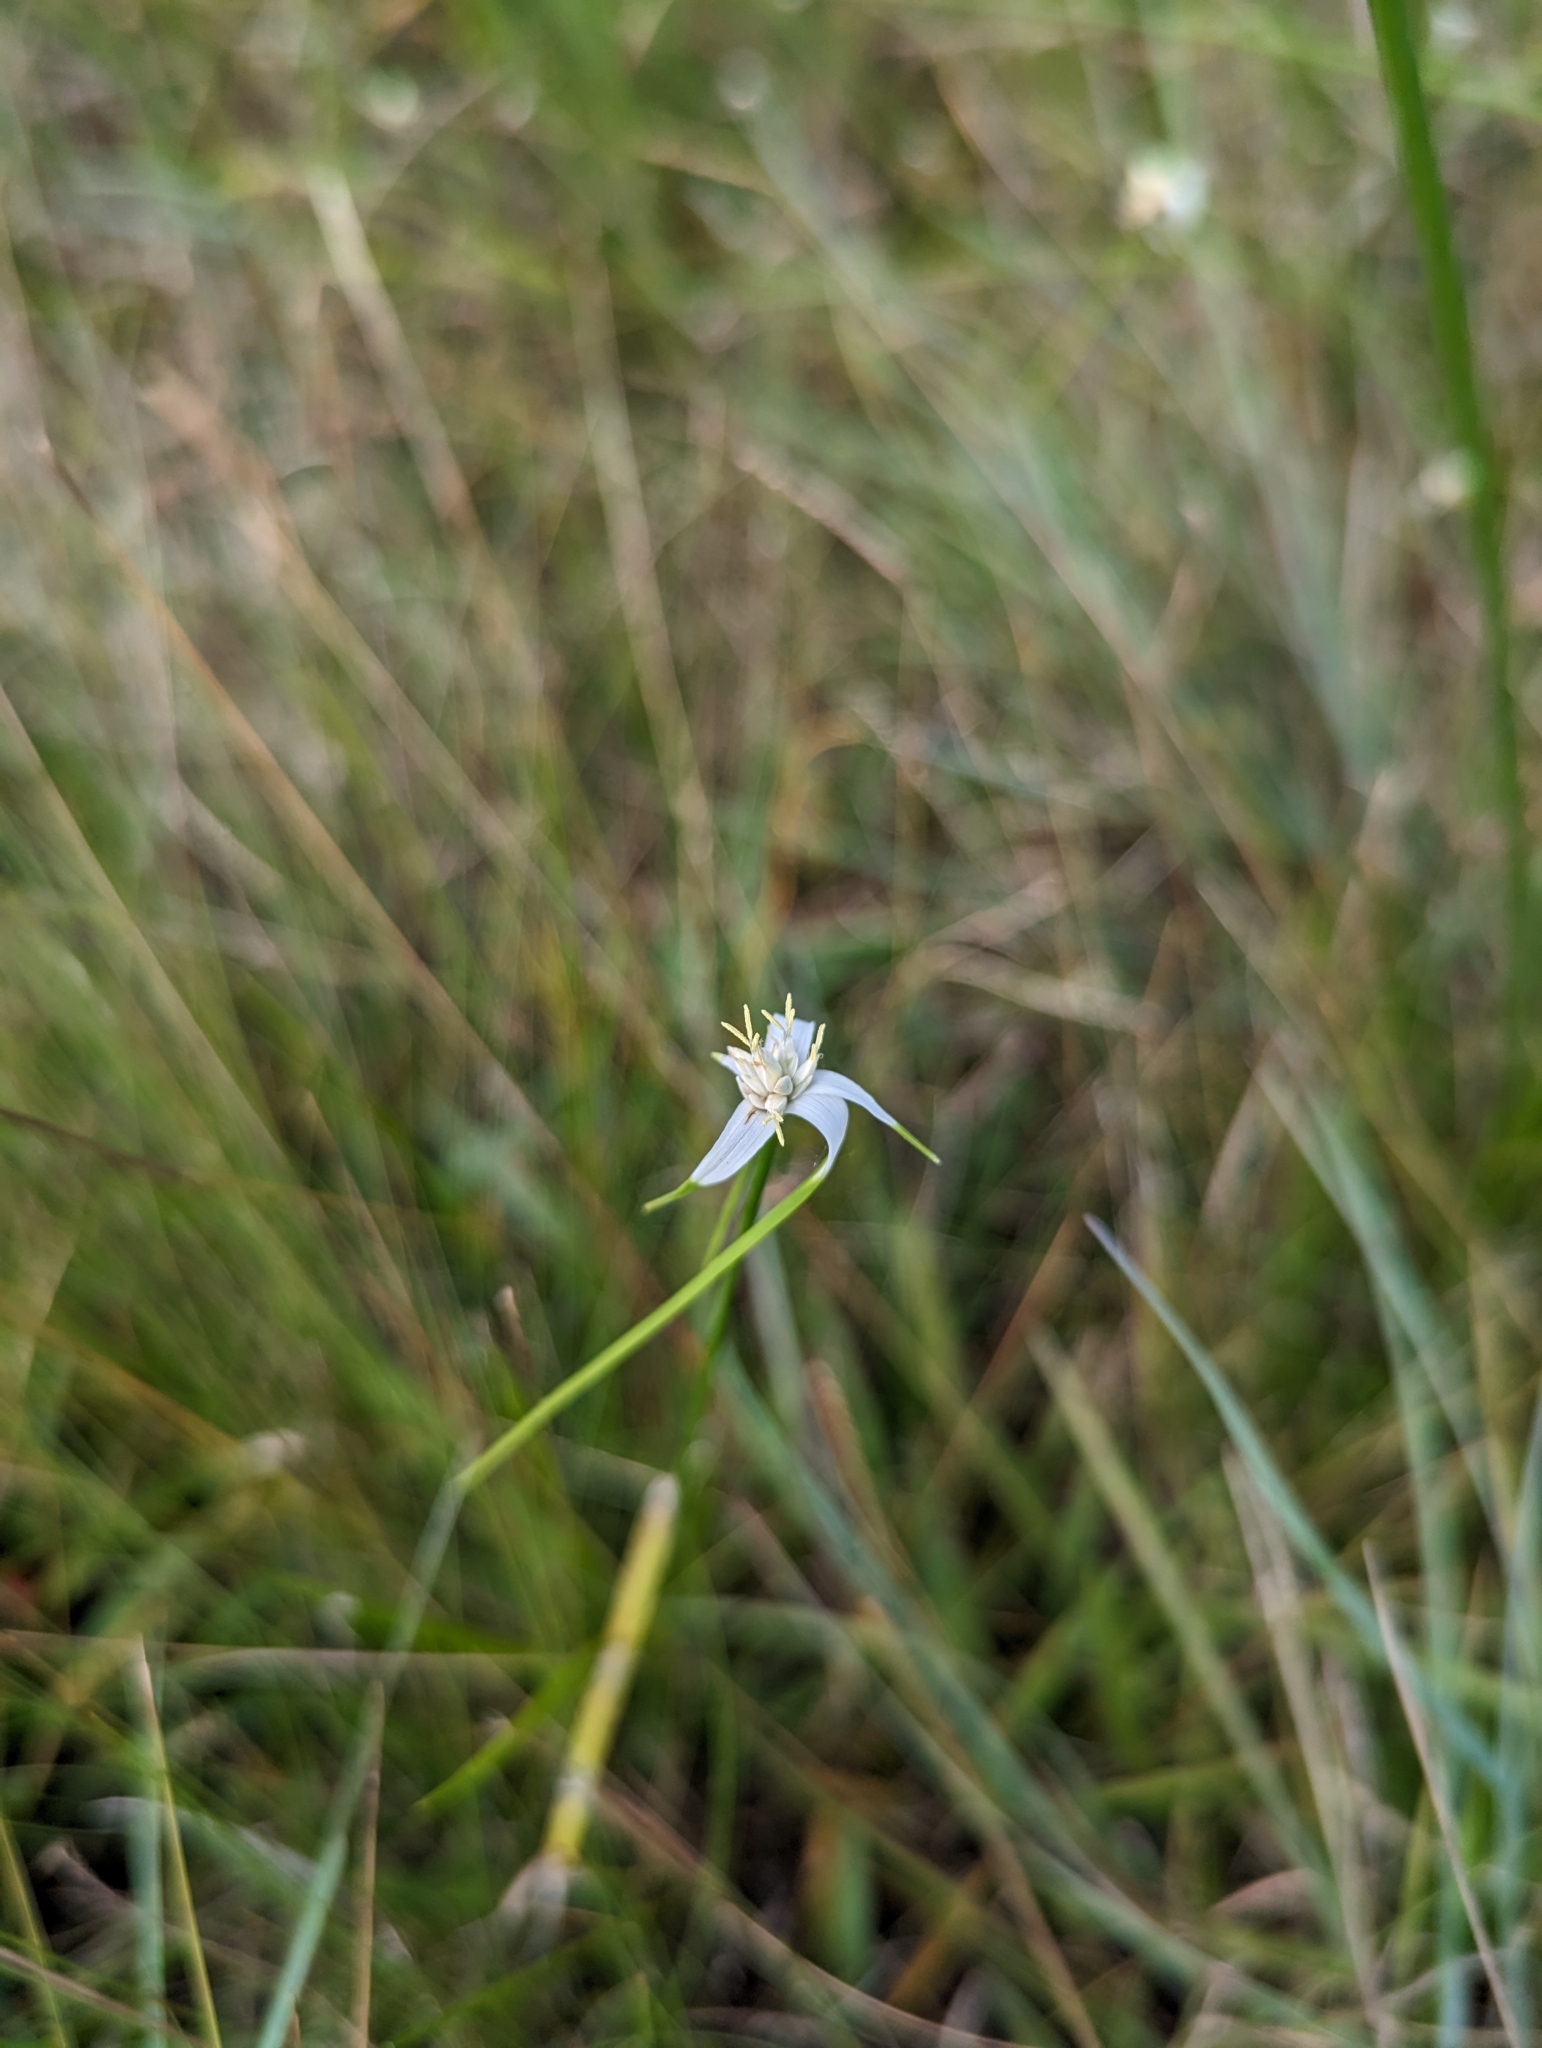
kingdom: Plantae
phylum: Tracheophyta
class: Liliopsida
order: Poales
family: Cyperaceae
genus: Rhynchospora
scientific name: Rhynchospora colorata
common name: Star sedge
